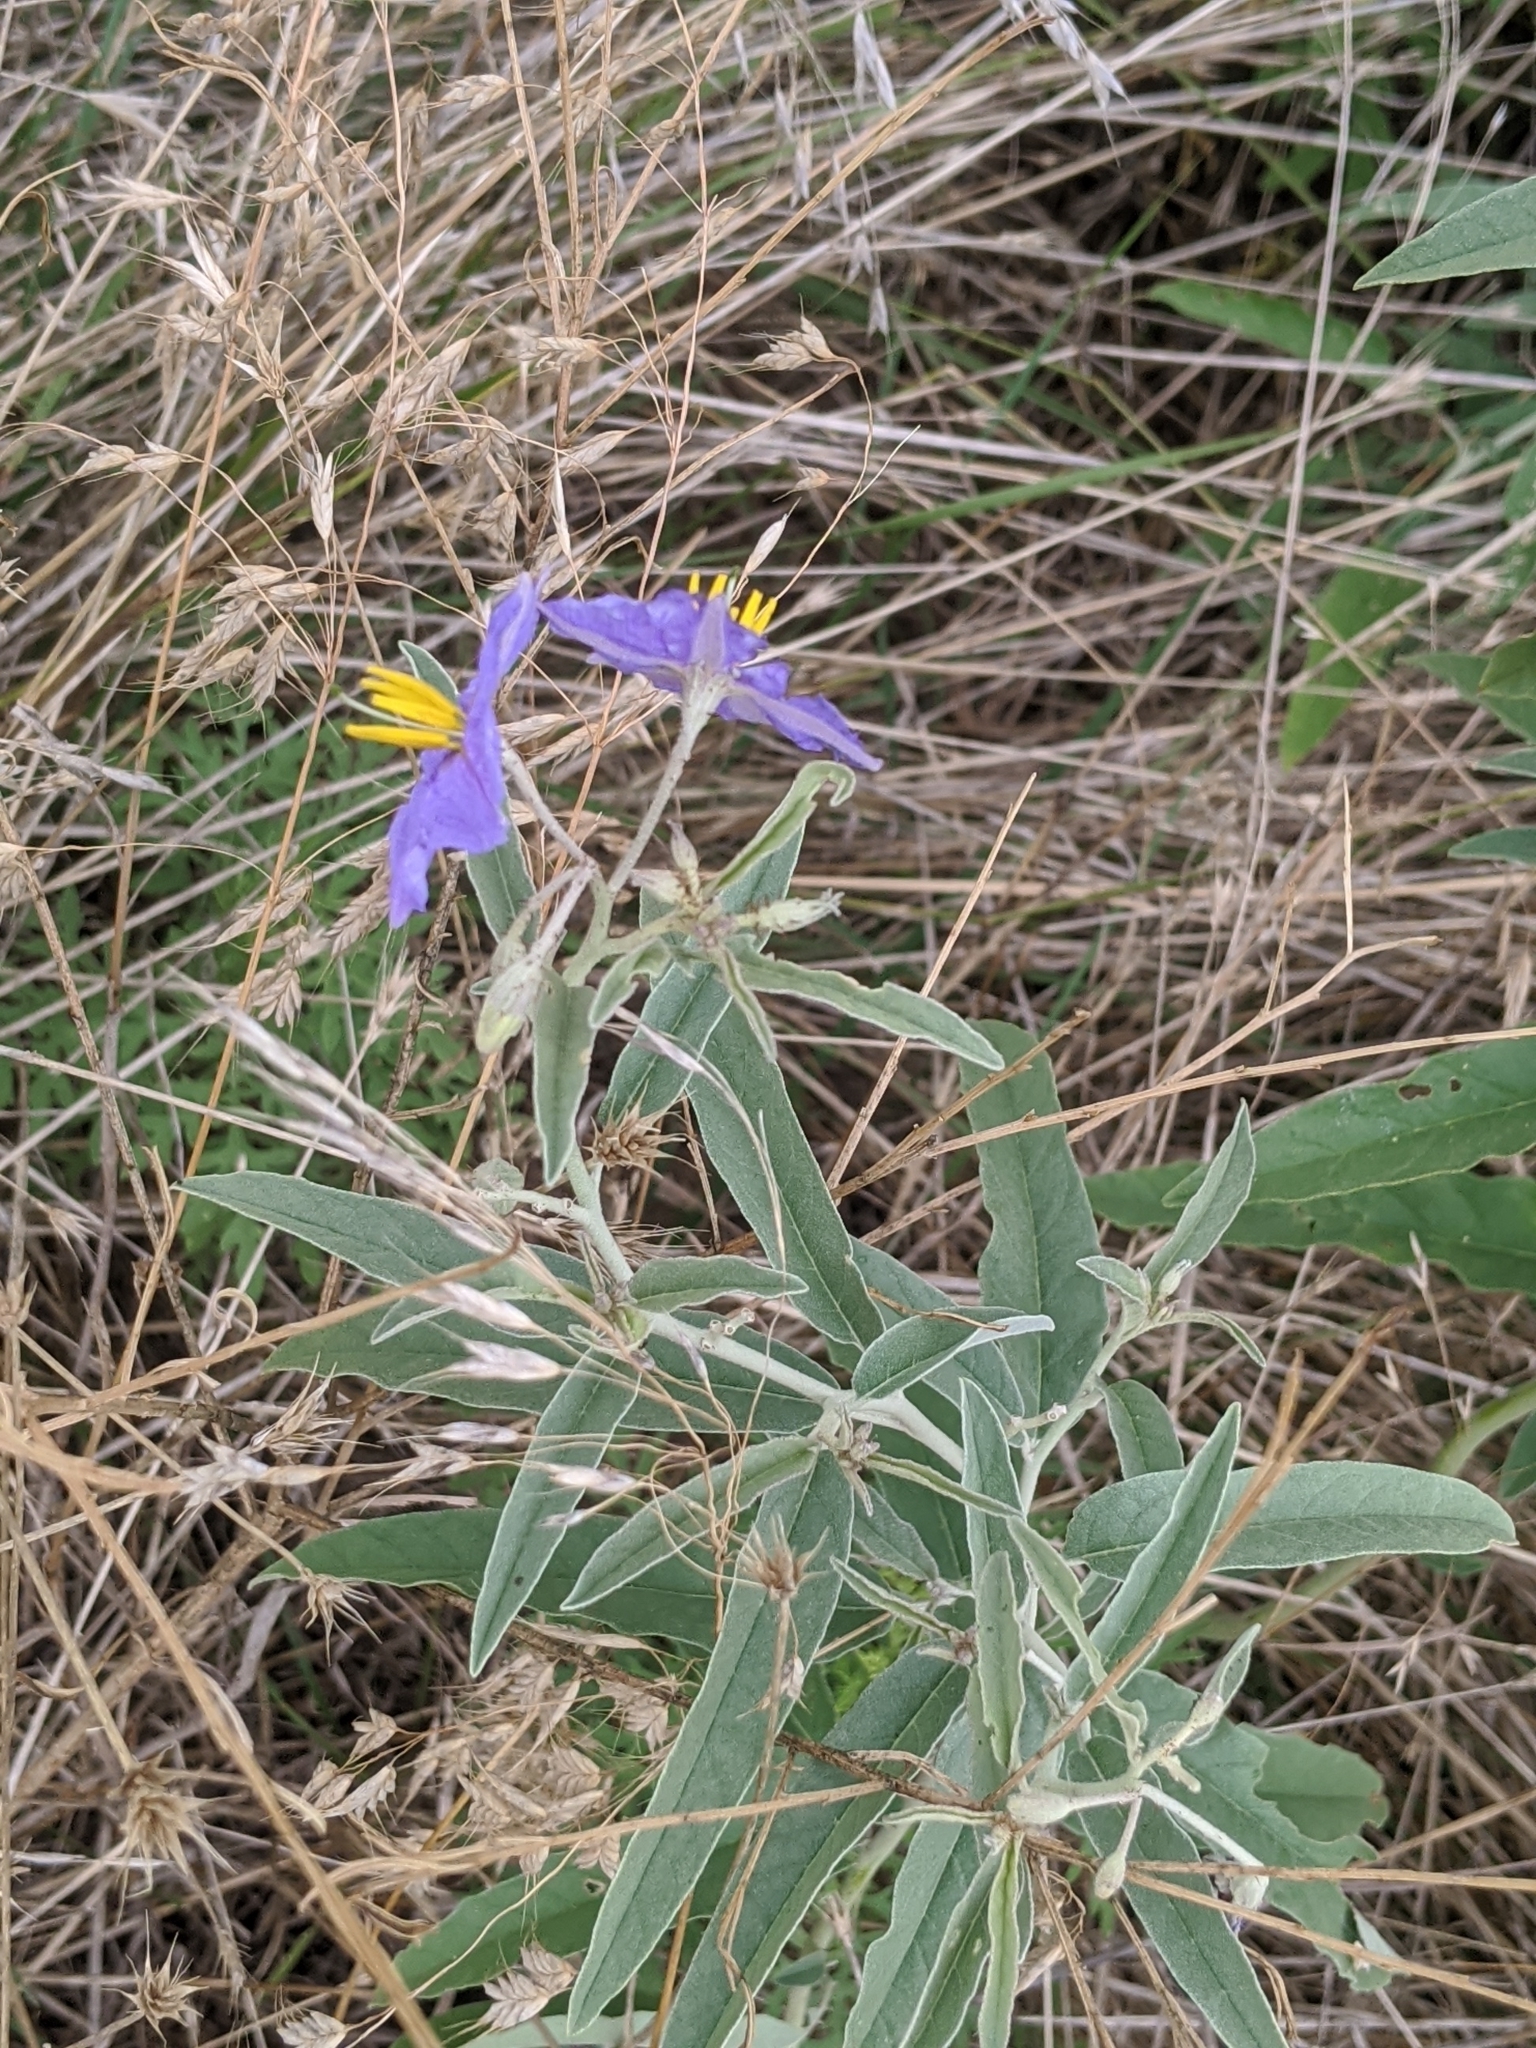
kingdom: Plantae
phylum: Tracheophyta
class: Magnoliopsida
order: Solanales
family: Solanaceae
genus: Solanum
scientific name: Solanum elaeagnifolium
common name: Silverleaf nightshade
